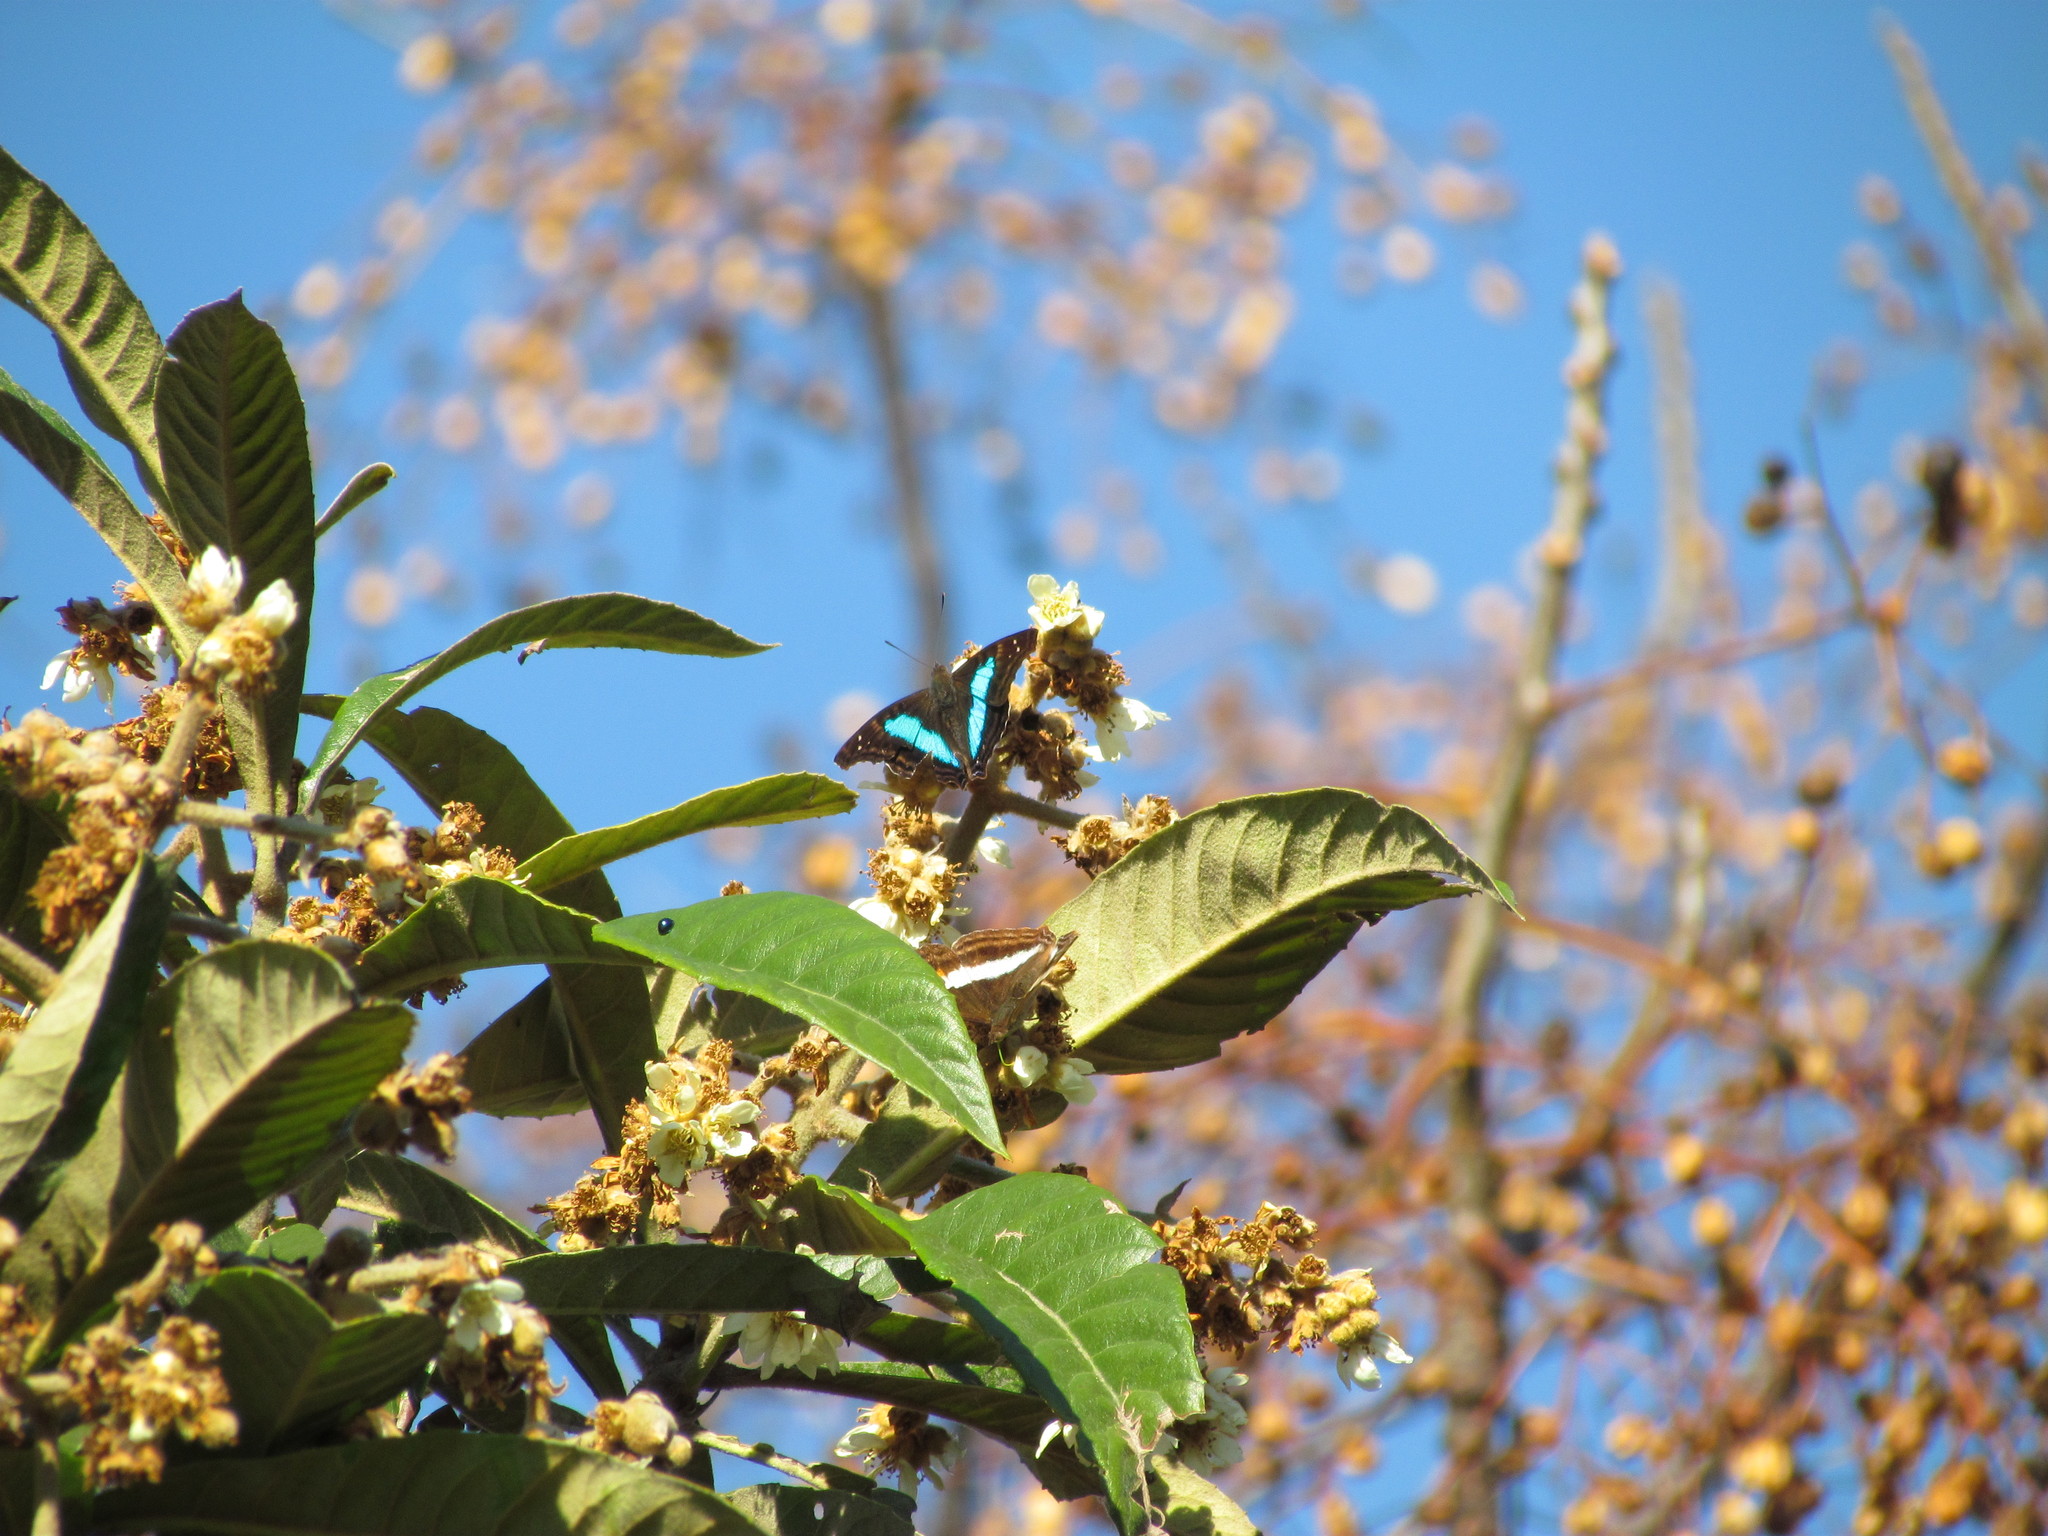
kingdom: Animalia
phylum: Arthropoda
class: Insecta
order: Lepidoptera
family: Nymphalidae
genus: Doxocopa
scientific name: Doxocopa laurentia
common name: Turquoise emperor
